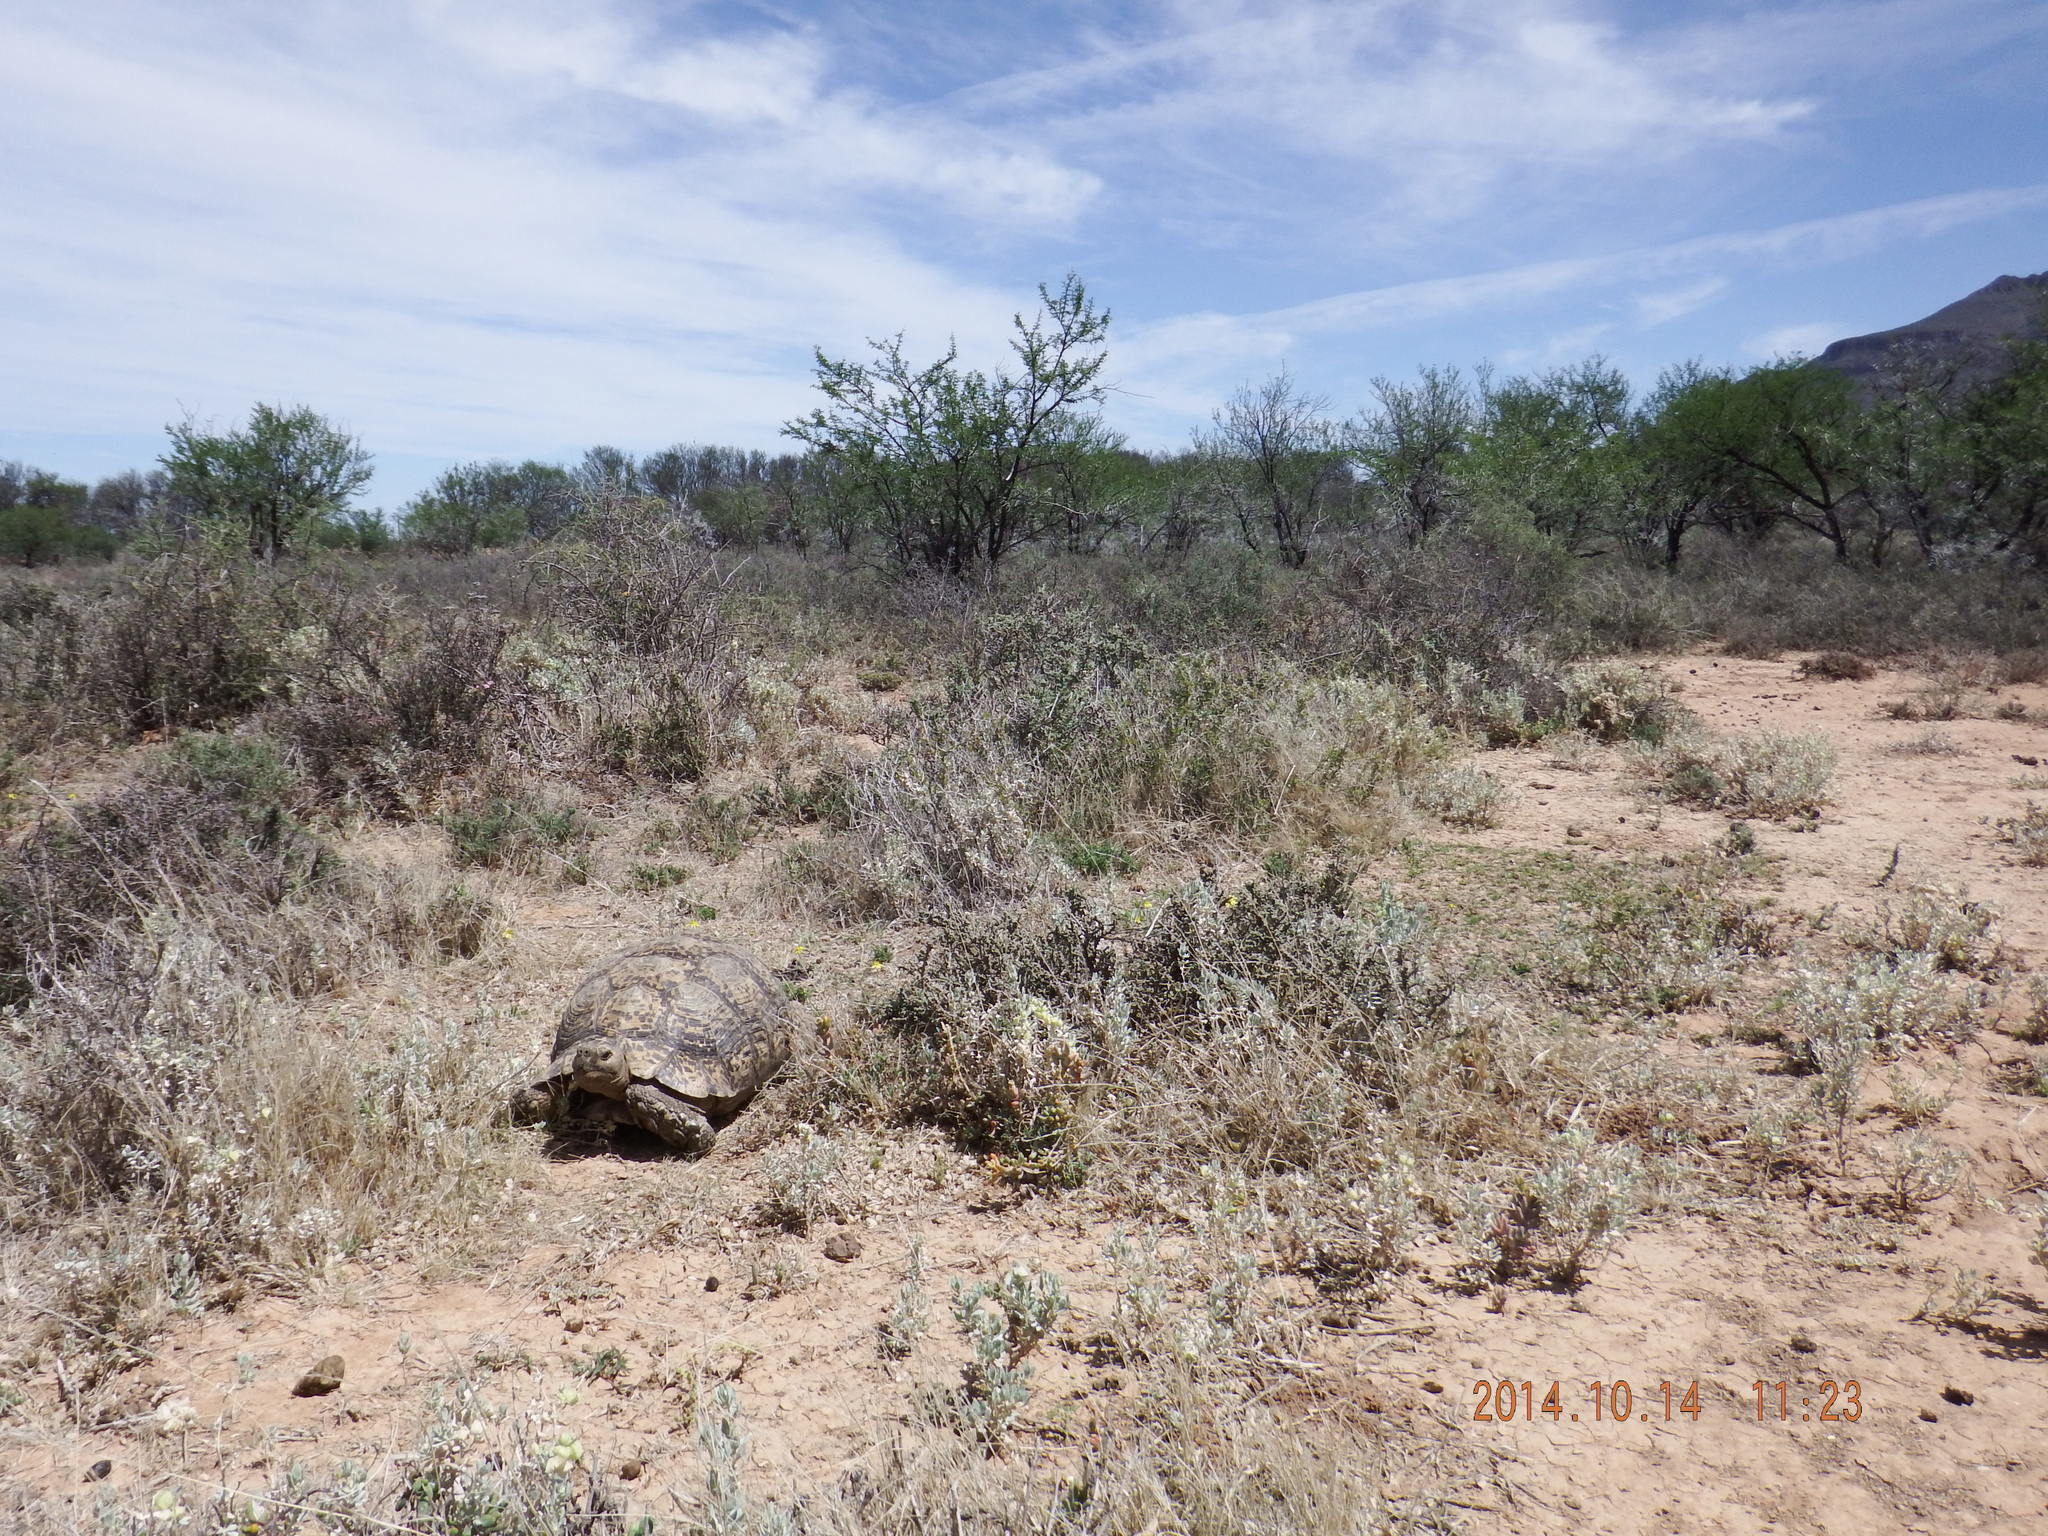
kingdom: Animalia
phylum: Chordata
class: Testudines
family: Testudinidae
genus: Stigmochelys
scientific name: Stigmochelys pardalis
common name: Leopard tortoise
